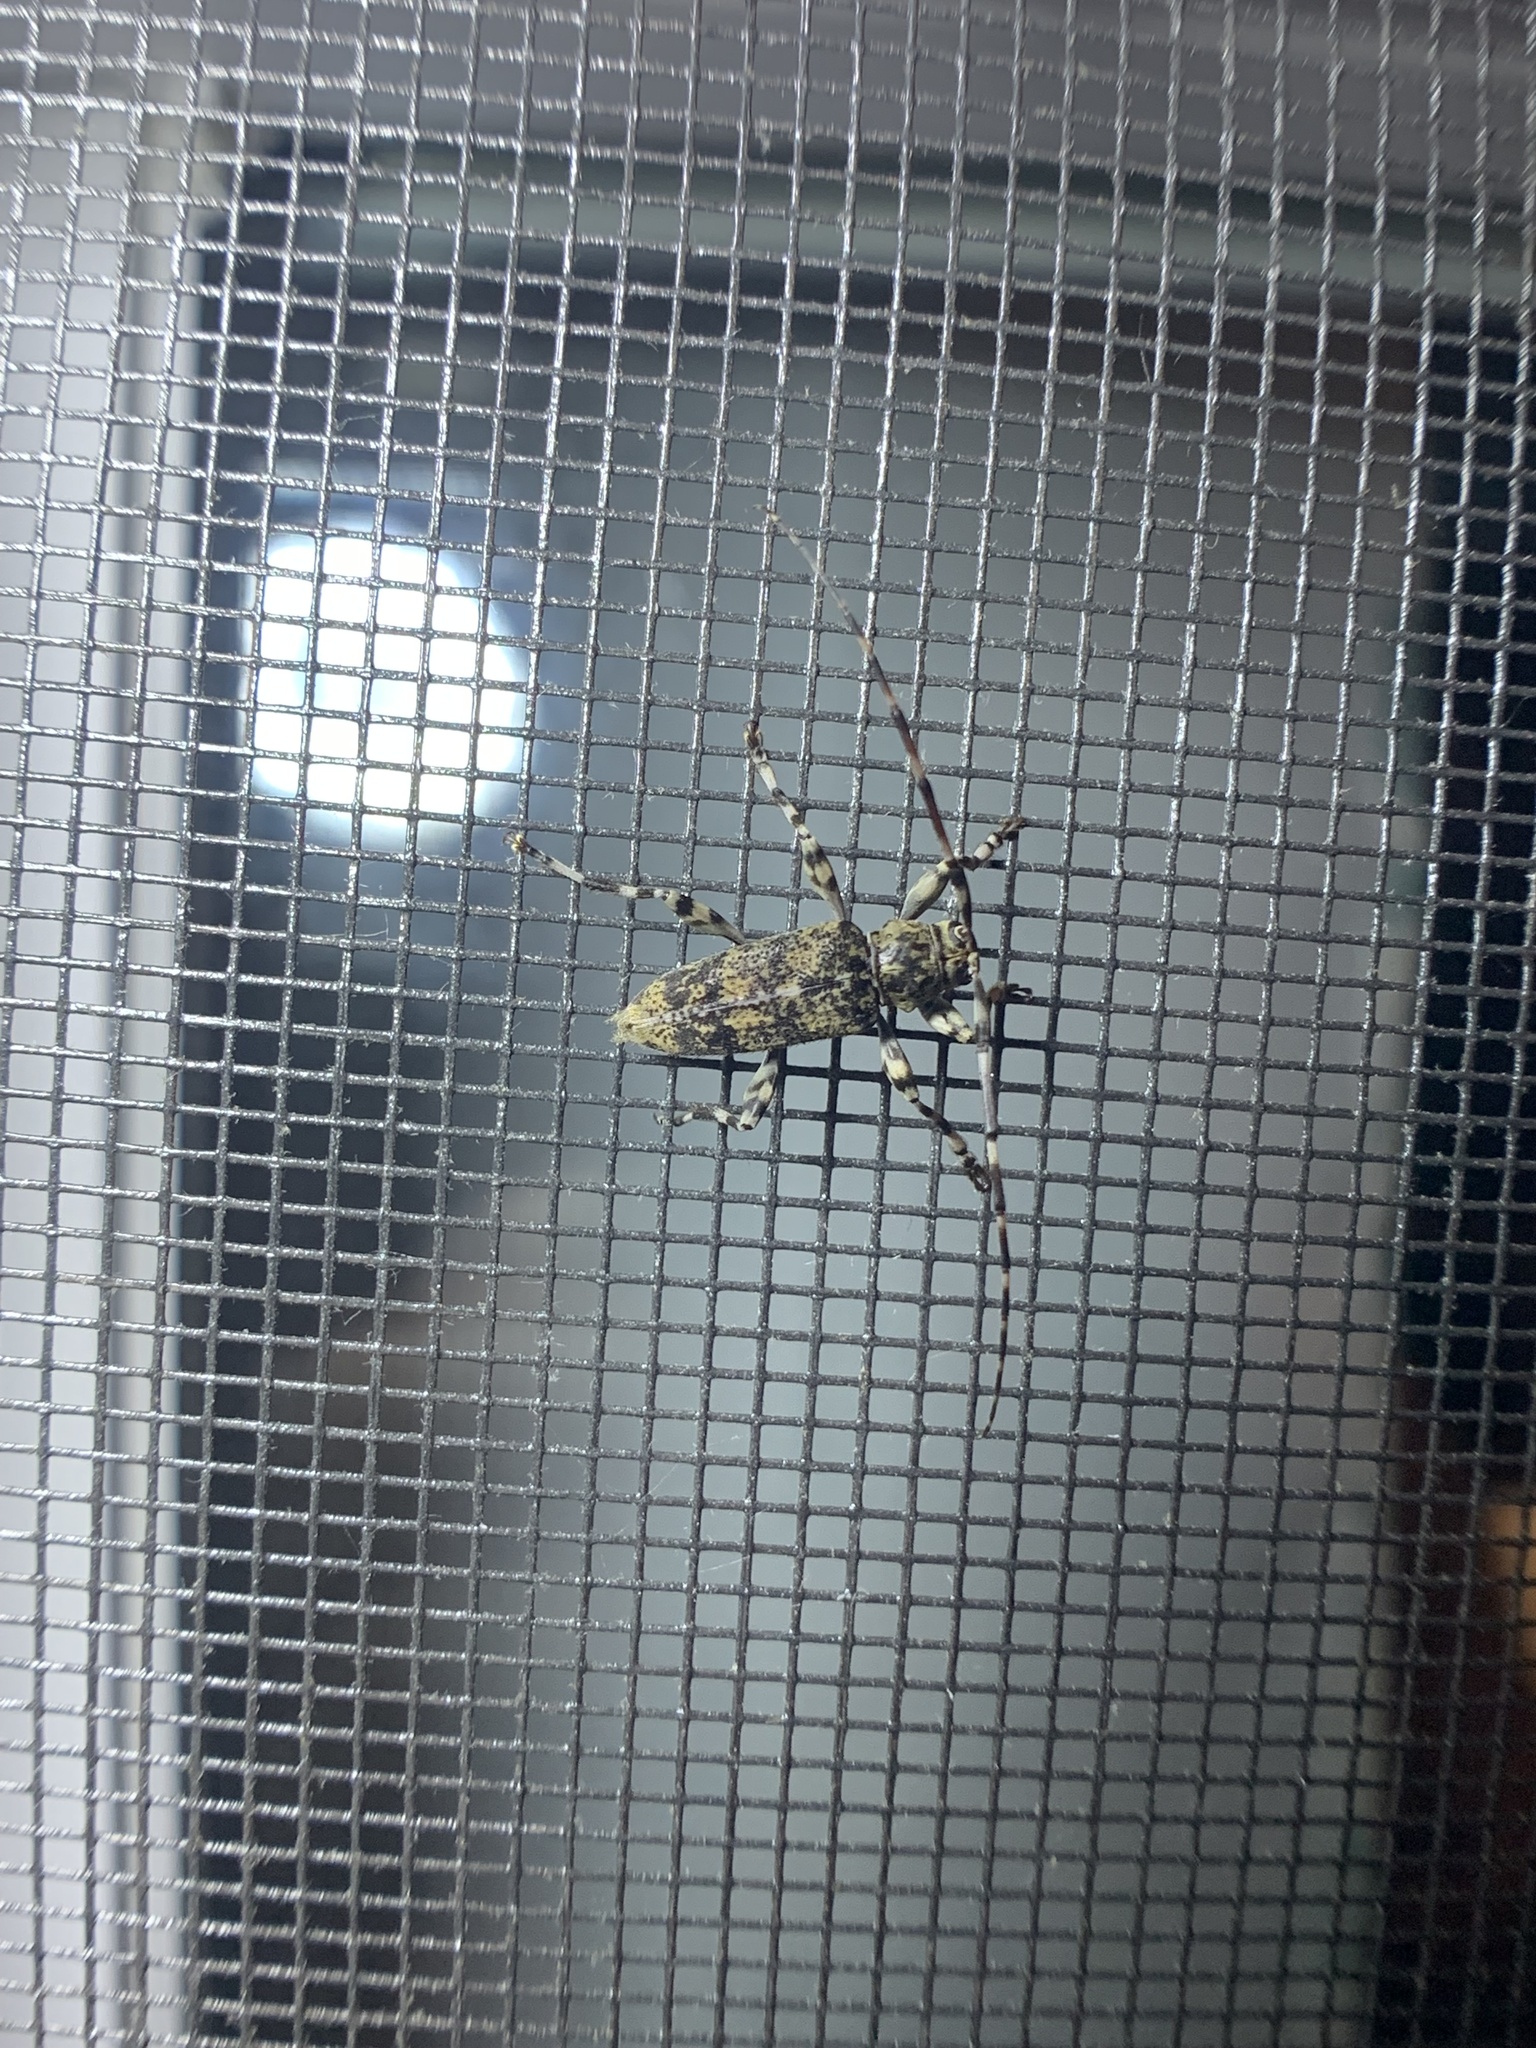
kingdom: Animalia
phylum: Arthropoda
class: Insecta
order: Coleoptera
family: Cerambycidae
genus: Graphisurus
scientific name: Graphisurus fasciatus
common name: Banded graphisurus
